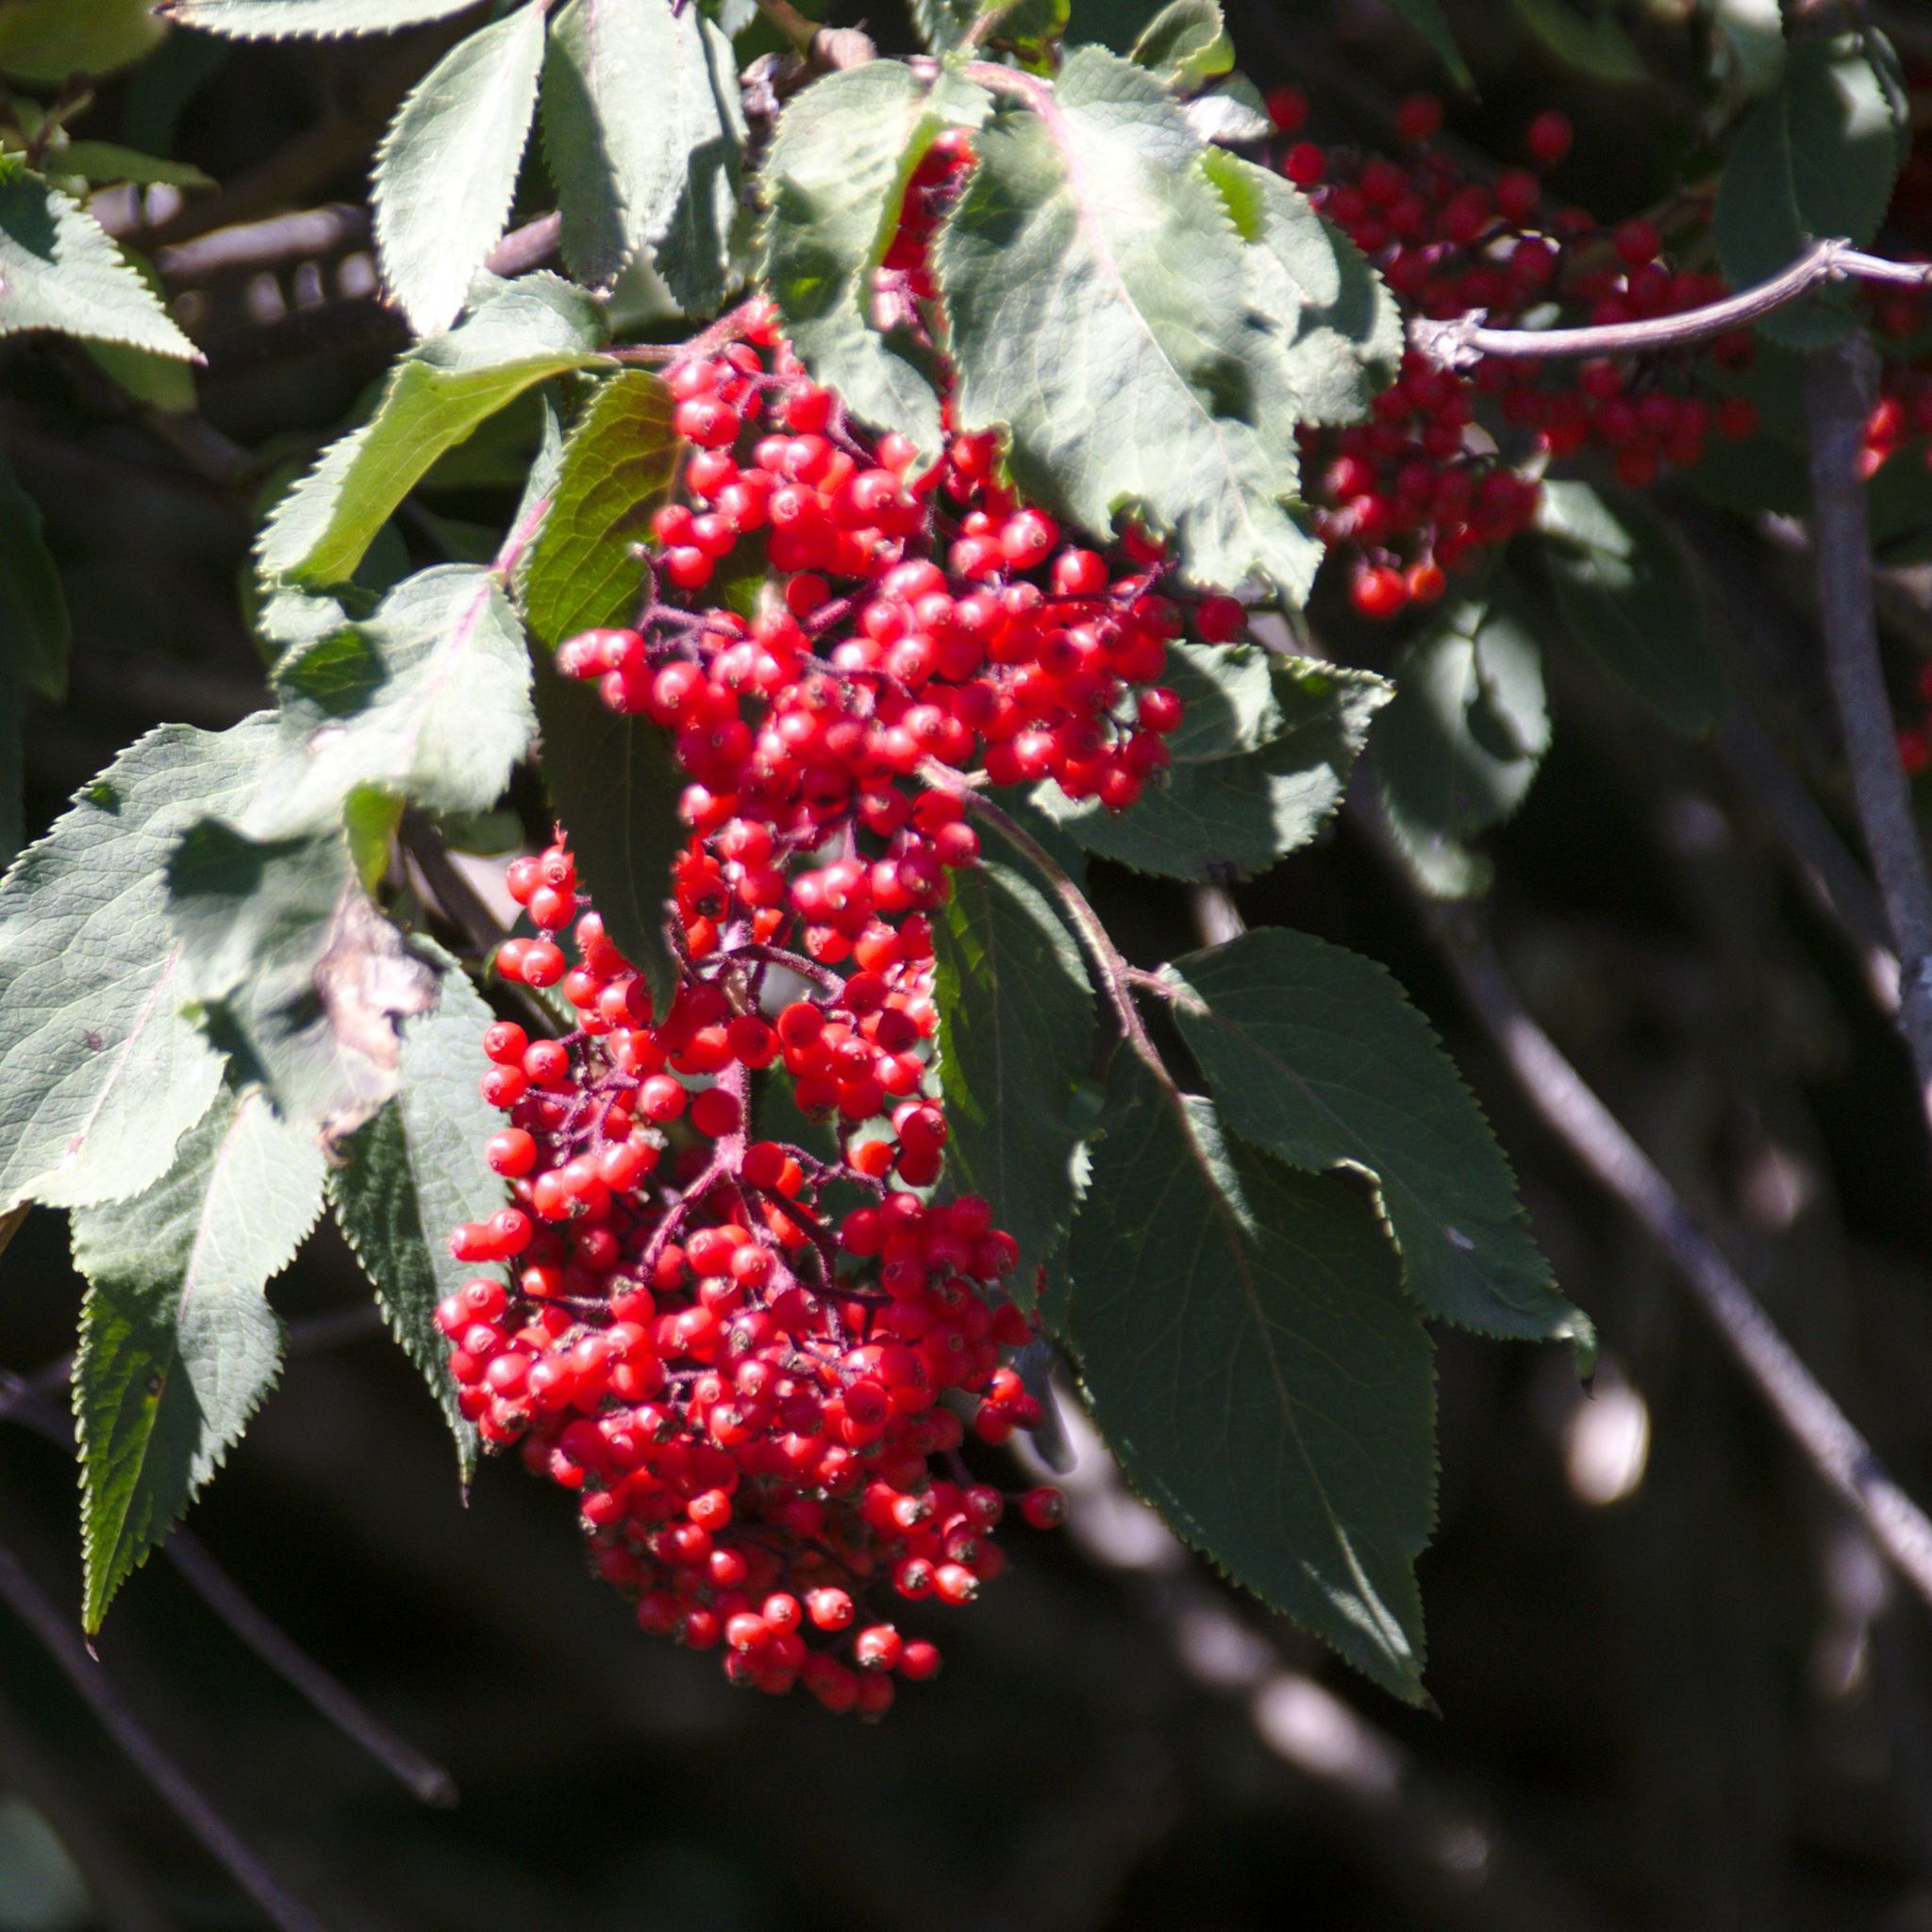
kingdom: Plantae
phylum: Tracheophyta
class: Magnoliopsida
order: Dipsacales
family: Viburnaceae
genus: Sambucus
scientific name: Sambucus sibirica
